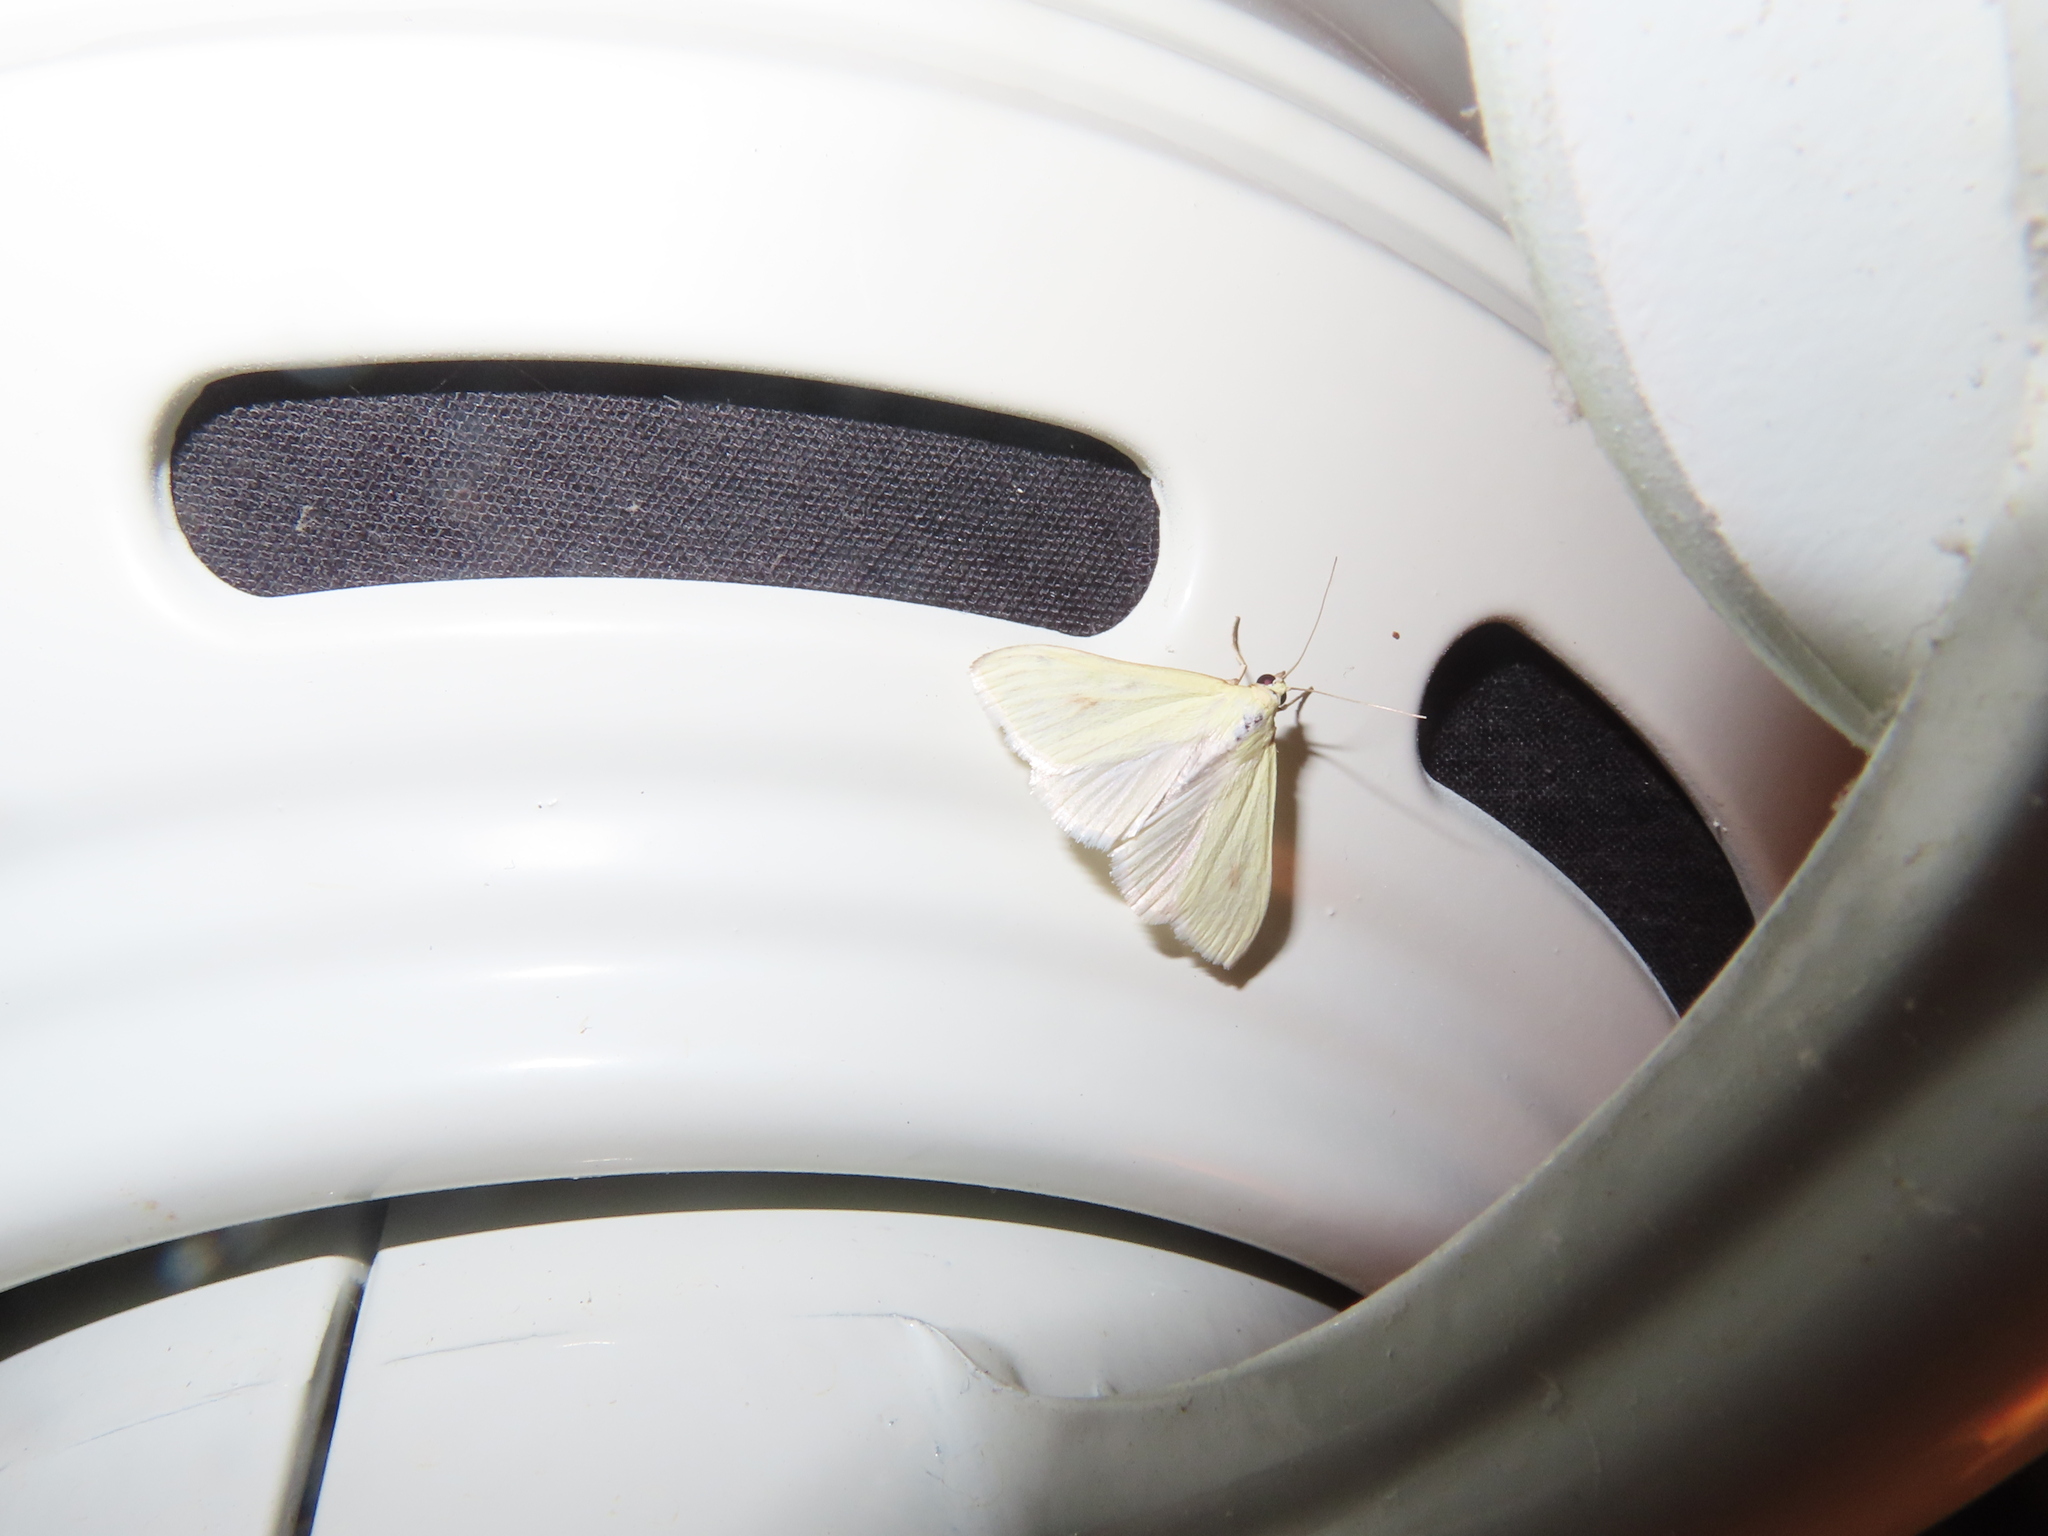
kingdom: Animalia
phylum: Arthropoda
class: Insecta
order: Lepidoptera
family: Crambidae
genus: Sitochroa
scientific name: Sitochroa palealis
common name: Greenish-yellow sitochroa moth
